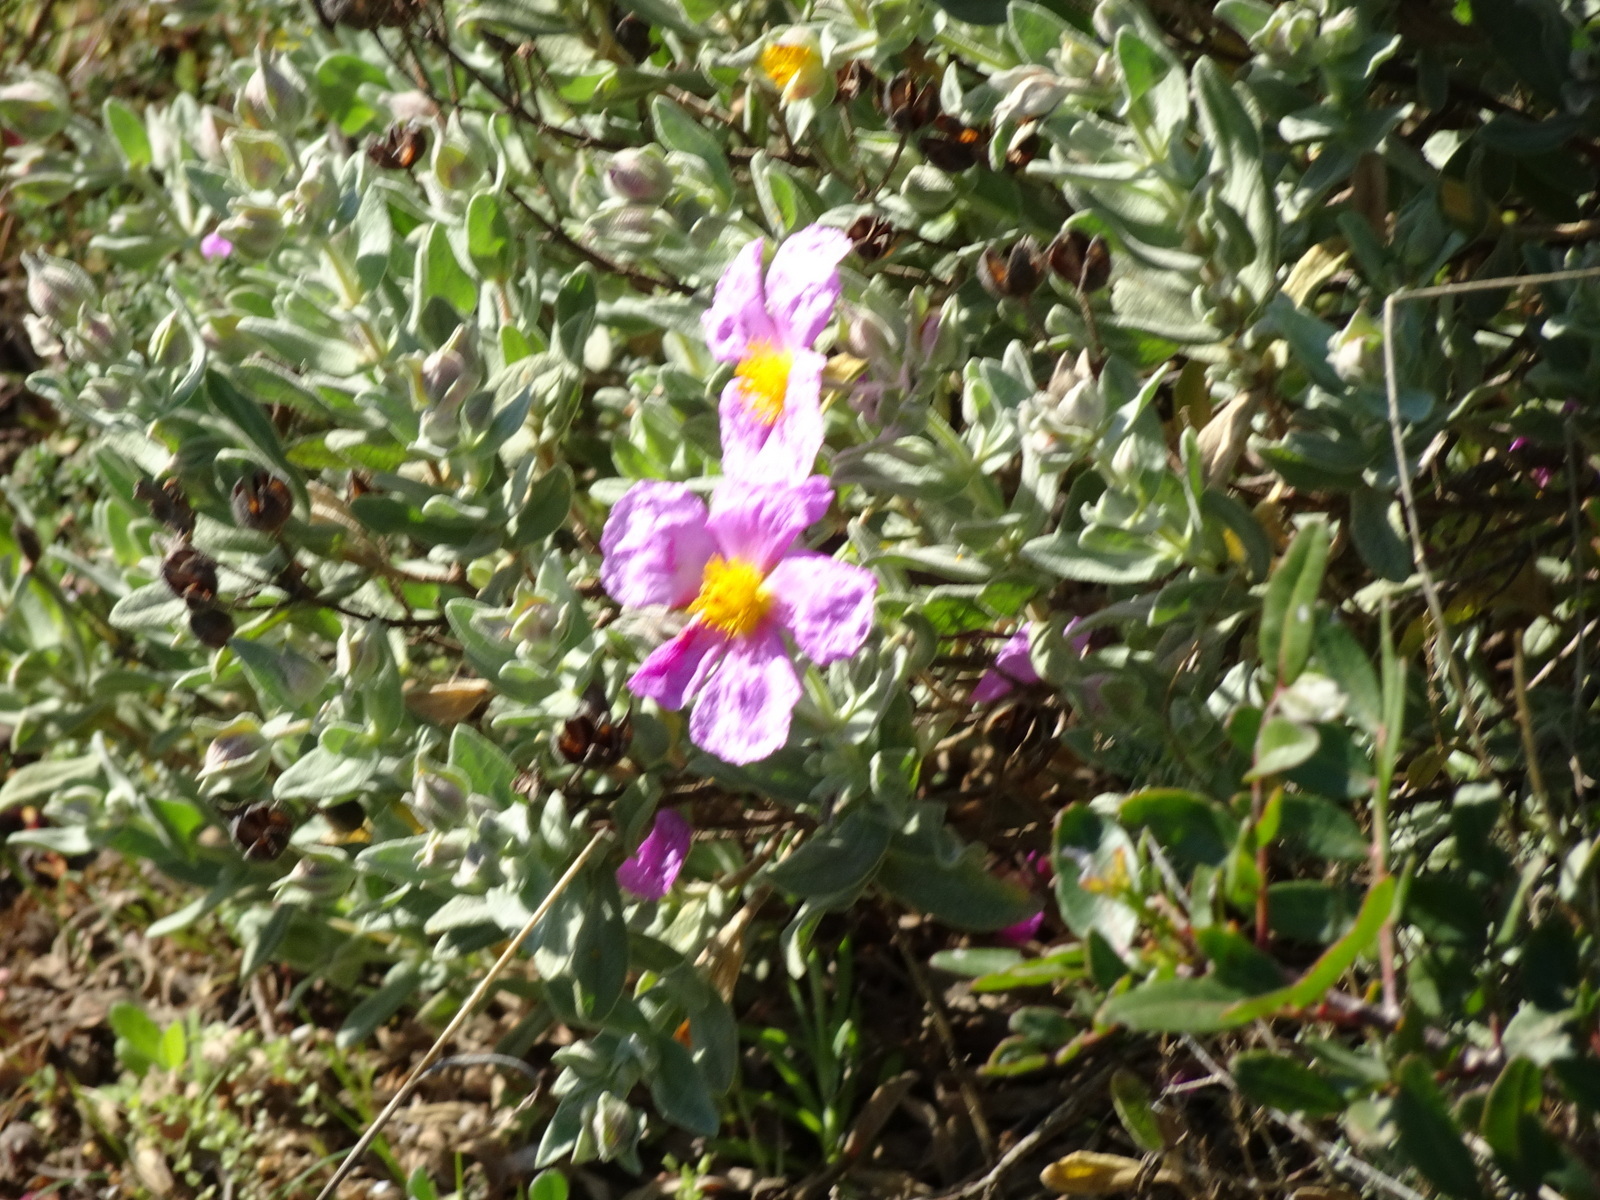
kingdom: Plantae
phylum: Tracheophyta
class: Magnoliopsida
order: Malvales
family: Cistaceae
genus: Cistus
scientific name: Cistus albidus
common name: White-leaf rock-rose
